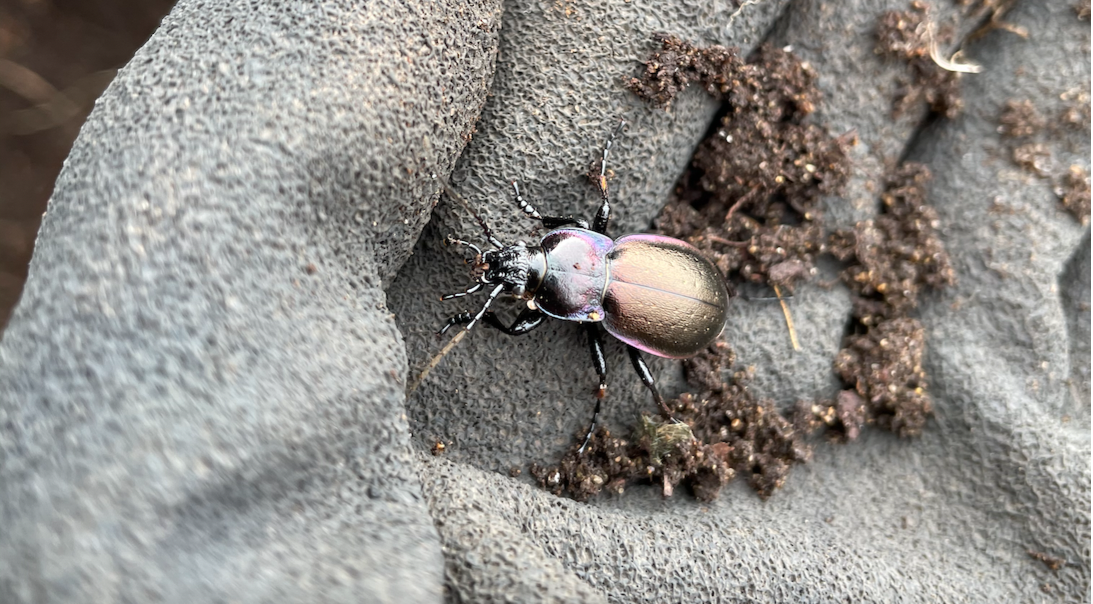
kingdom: Animalia
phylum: Arthropoda
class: Insecta
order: Coleoptera
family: Carabidae
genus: Carabus
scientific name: Carabus nemoralis
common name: European ground beetle
